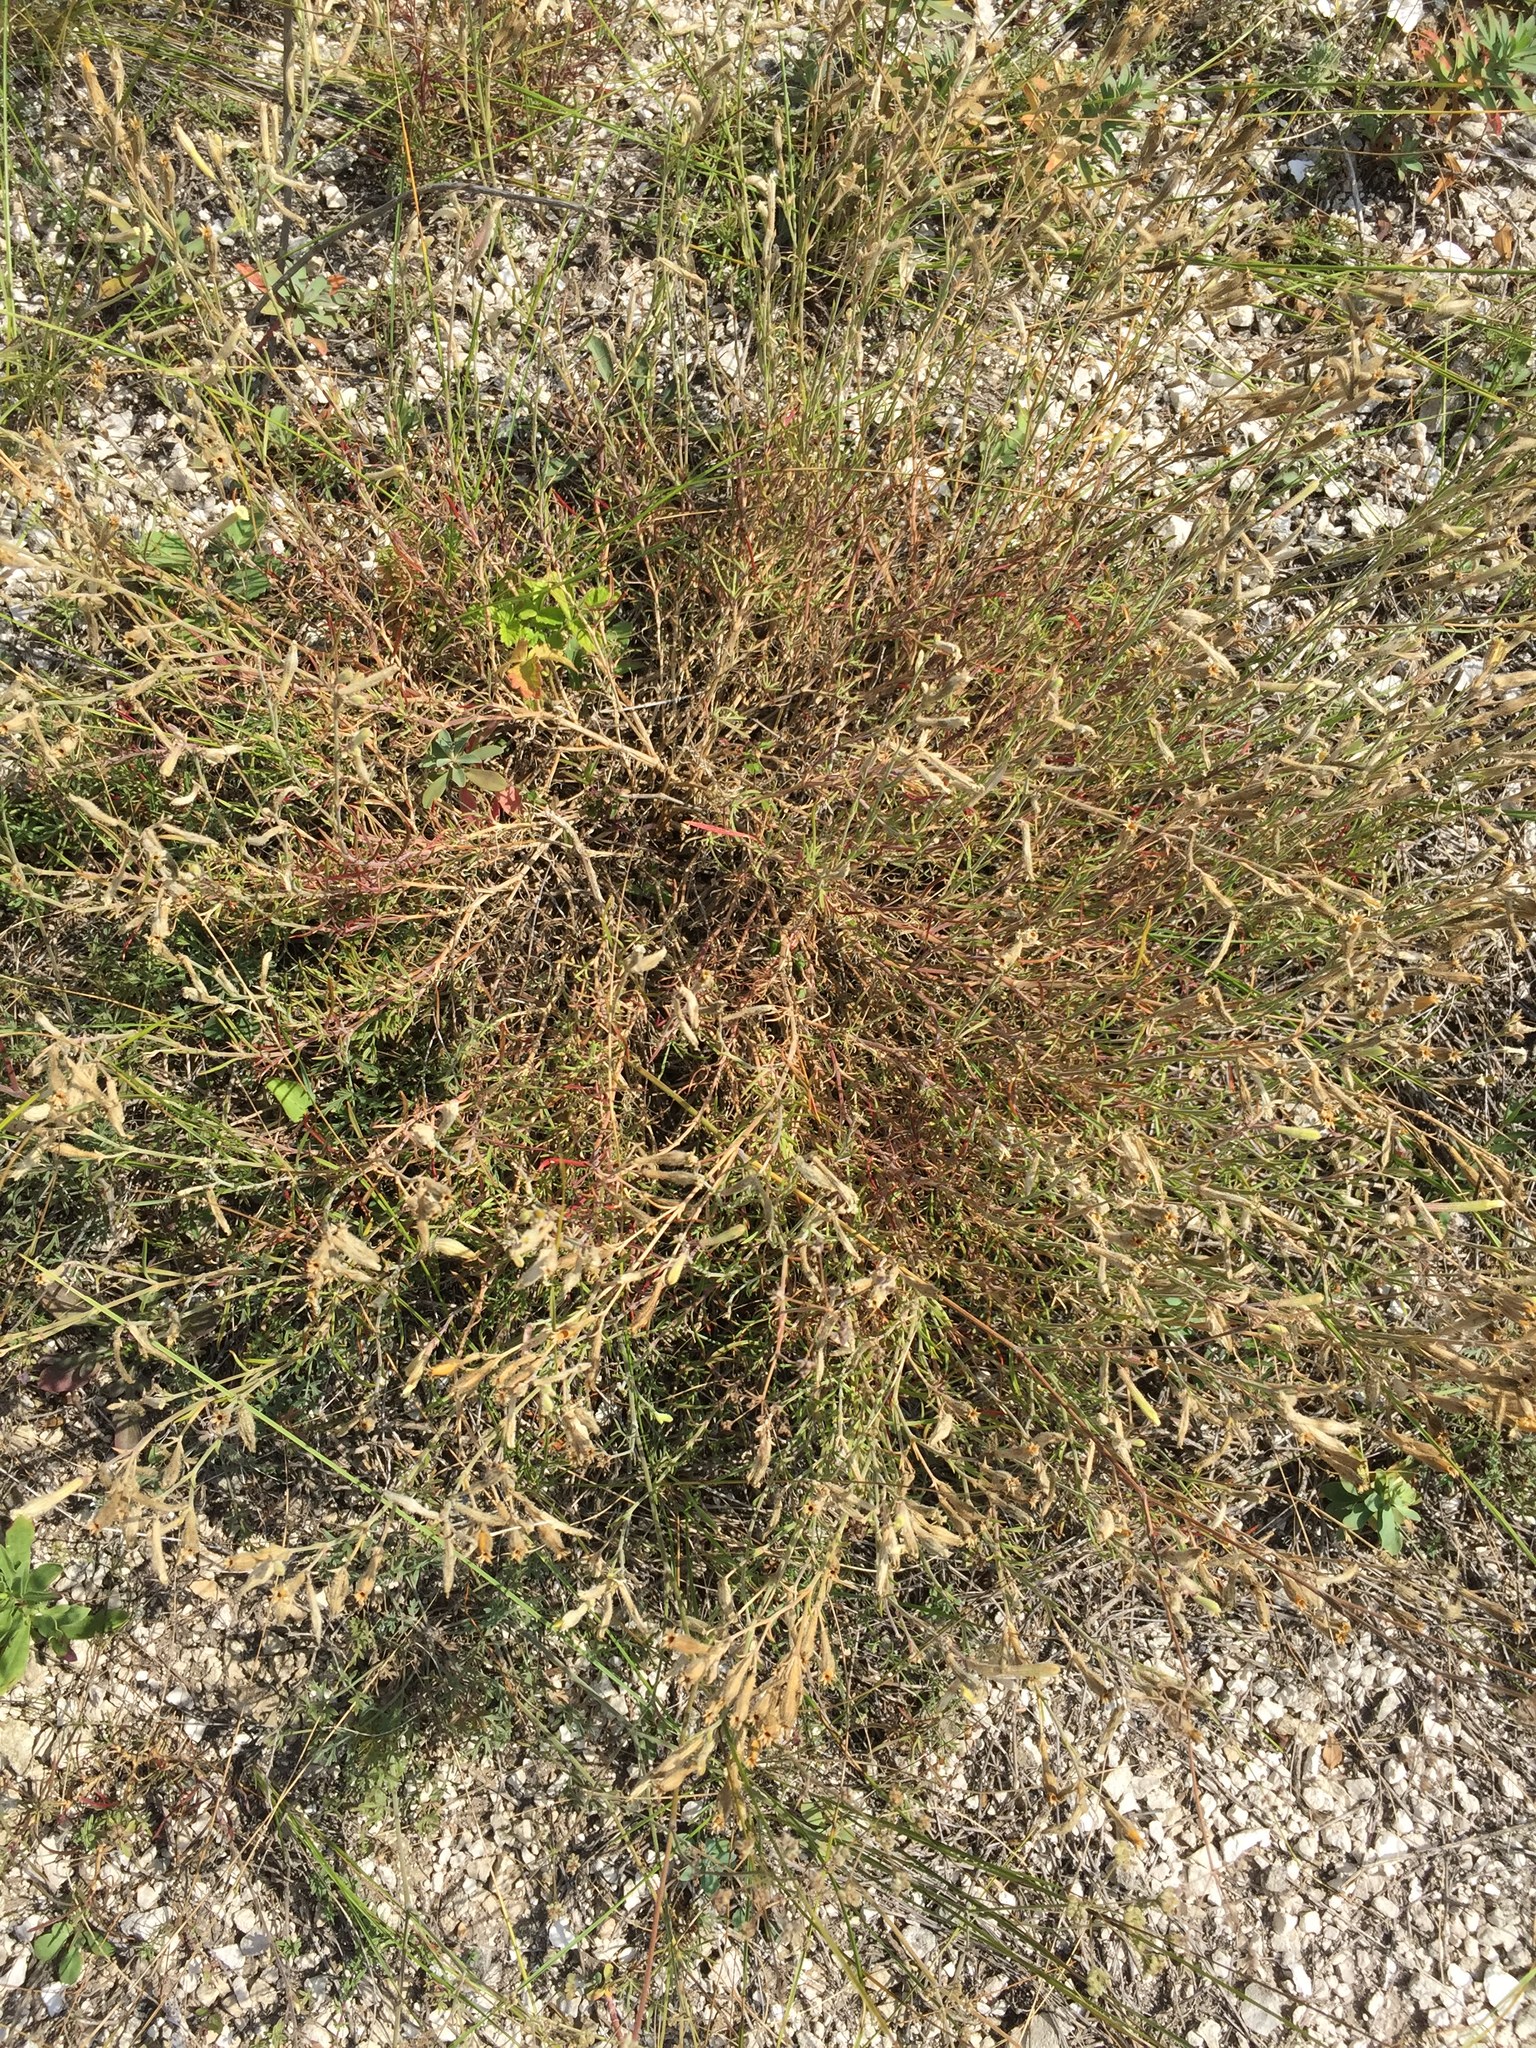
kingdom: Plantae
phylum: Tracheophyta
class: Magnoliopsida
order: Caryophyllales
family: Caryophyllaceae
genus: Silene
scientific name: Silene supina
